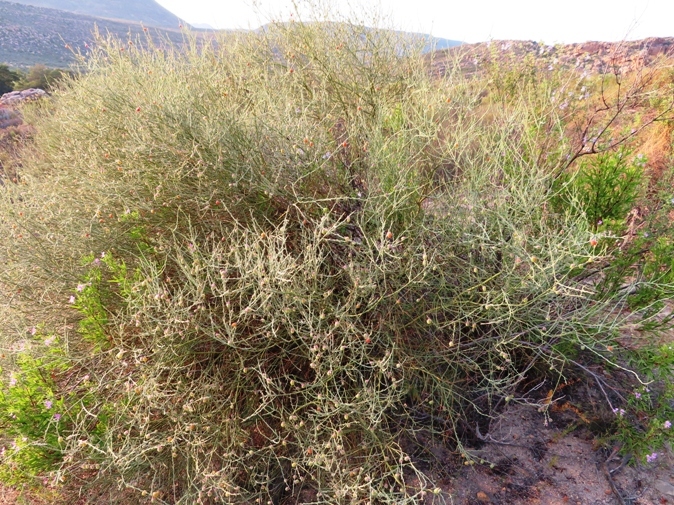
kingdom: Plantae
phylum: Tracheophyta
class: Magnoliopsida
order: Fabales
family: Polygalaceae
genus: Muraltia
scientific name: Muraltia spinosa
